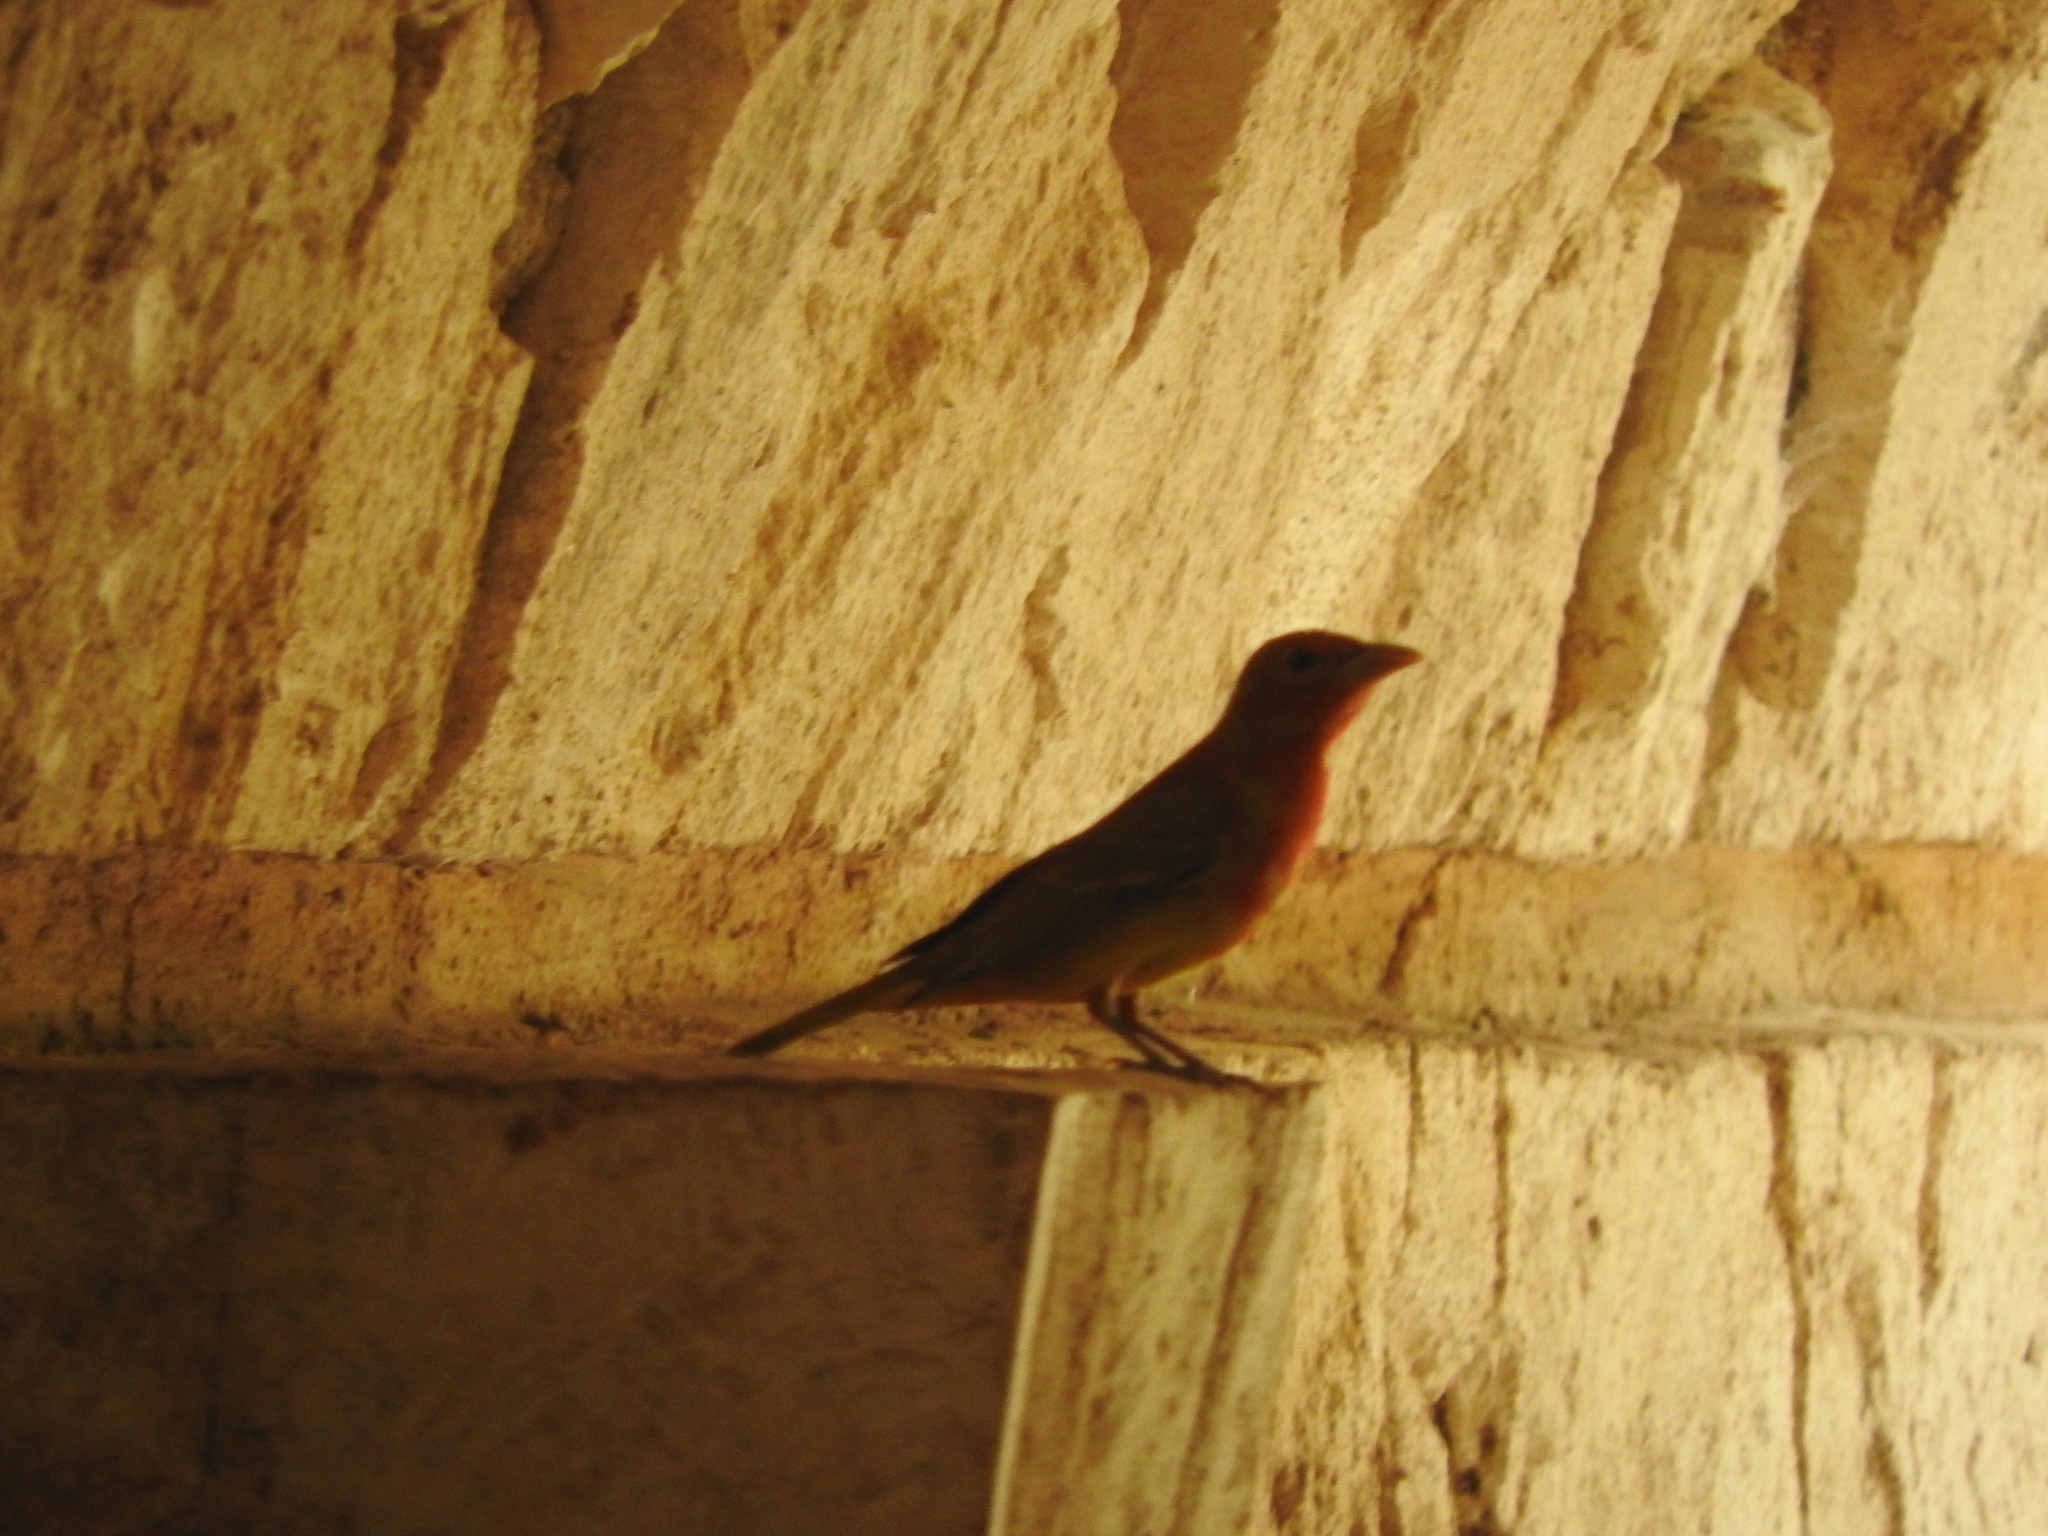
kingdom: Animalia
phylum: Chordata
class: Aves
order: Passeriformes
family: Cardinalidae
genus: Piranga
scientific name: Piranga rubra
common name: Summer tanager
